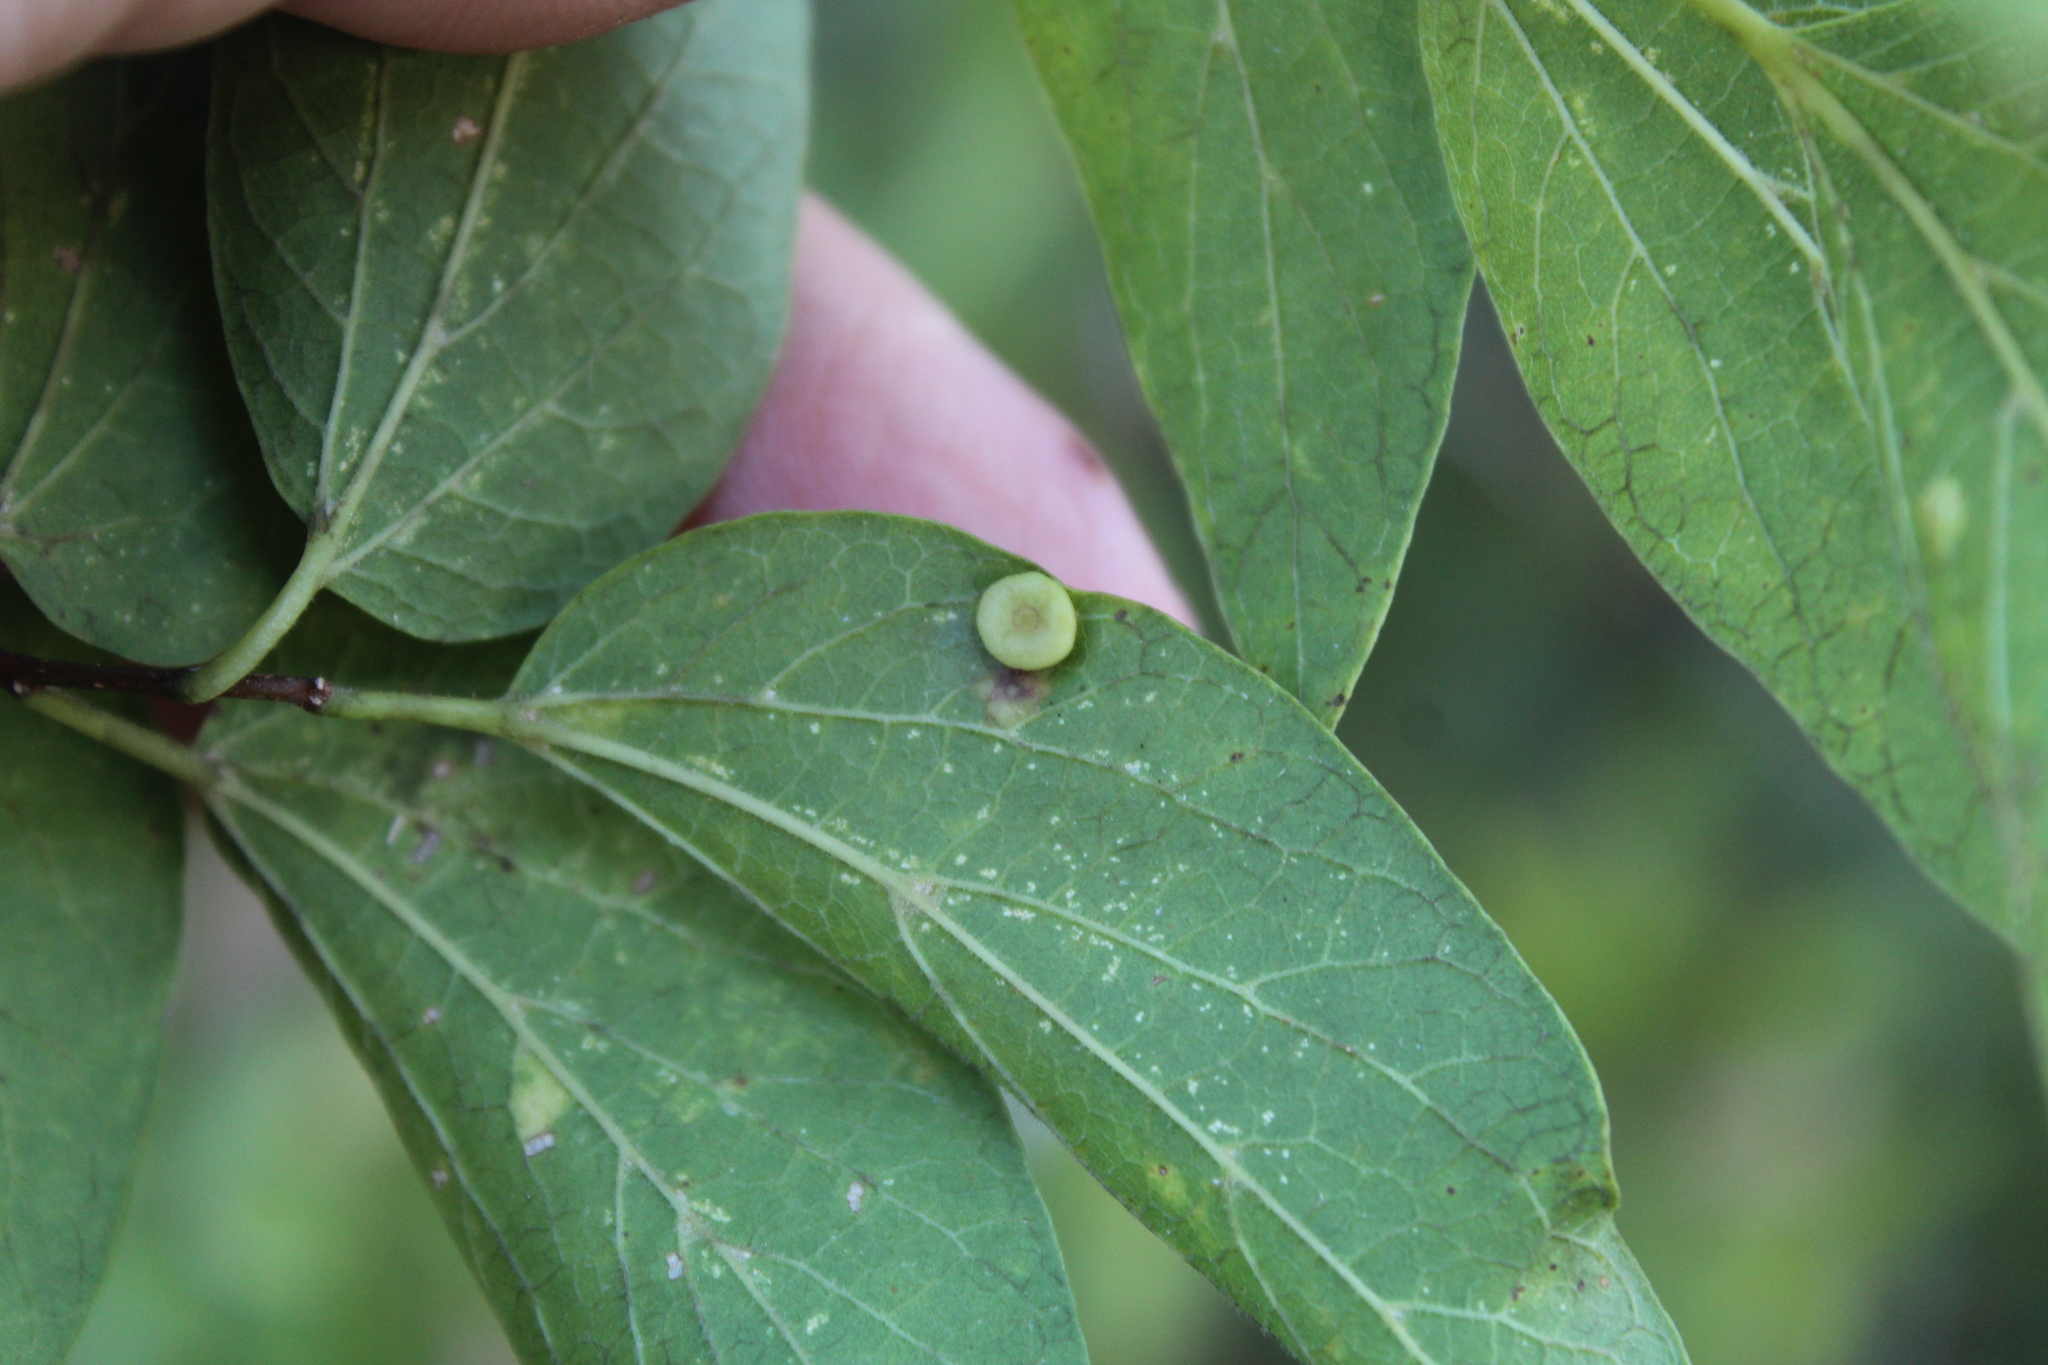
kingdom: Animalia
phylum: Arthropoda
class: Insecta
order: Hemiptera
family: Aphalaridae
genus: Pachypsylla
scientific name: Pachypsylla celtidismamma
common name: Hackberry nipplegall psyllid
